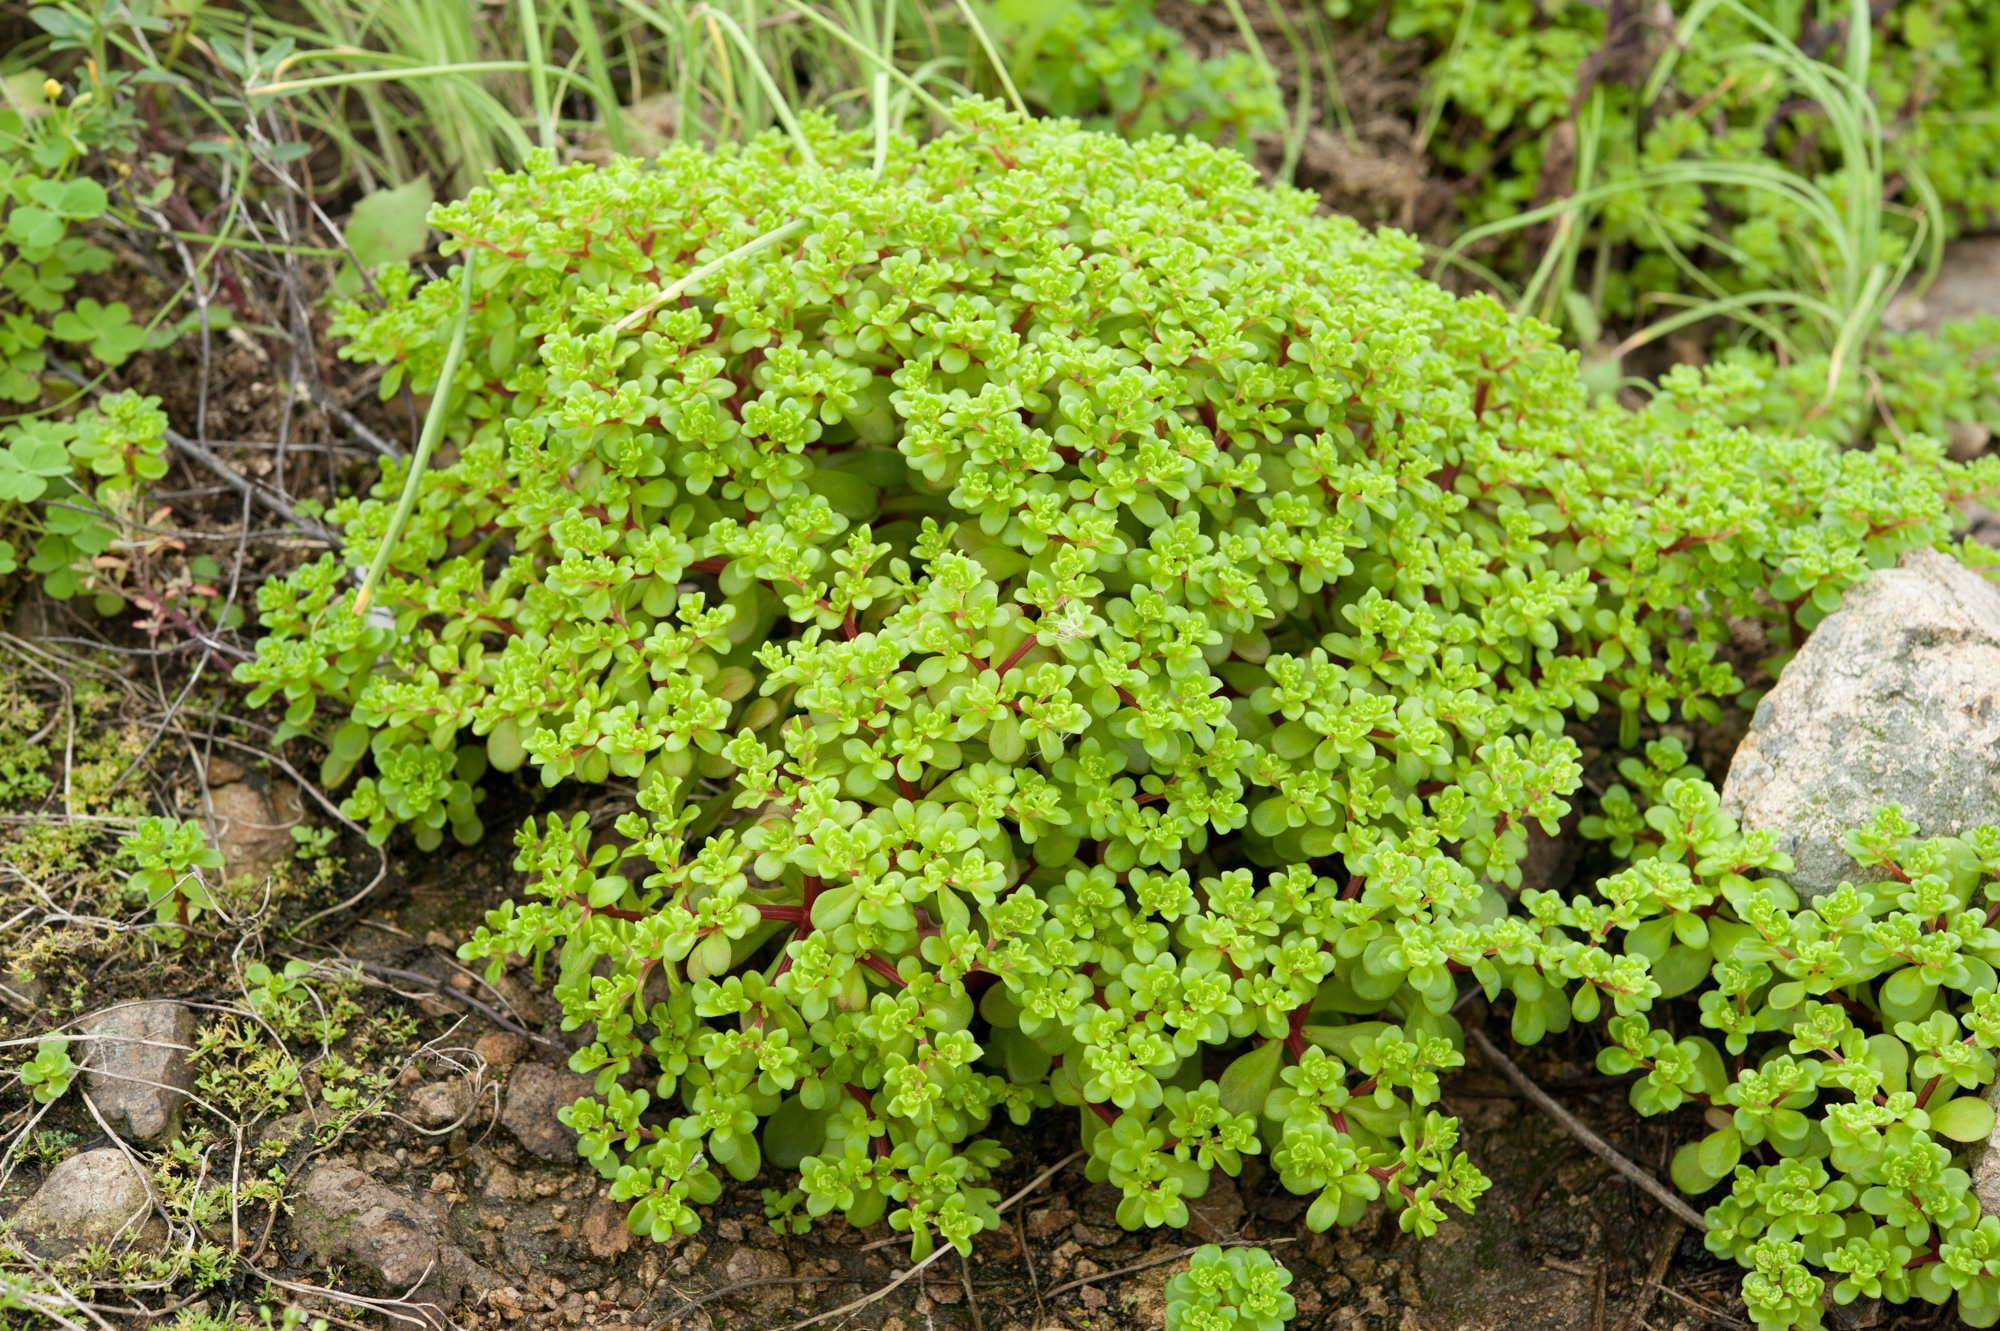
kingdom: Plantae
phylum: Tracheophyta
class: Magnoliopsida
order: Saxifragales
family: Crassulaceae
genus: Sedum
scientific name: Sedum formosanum
